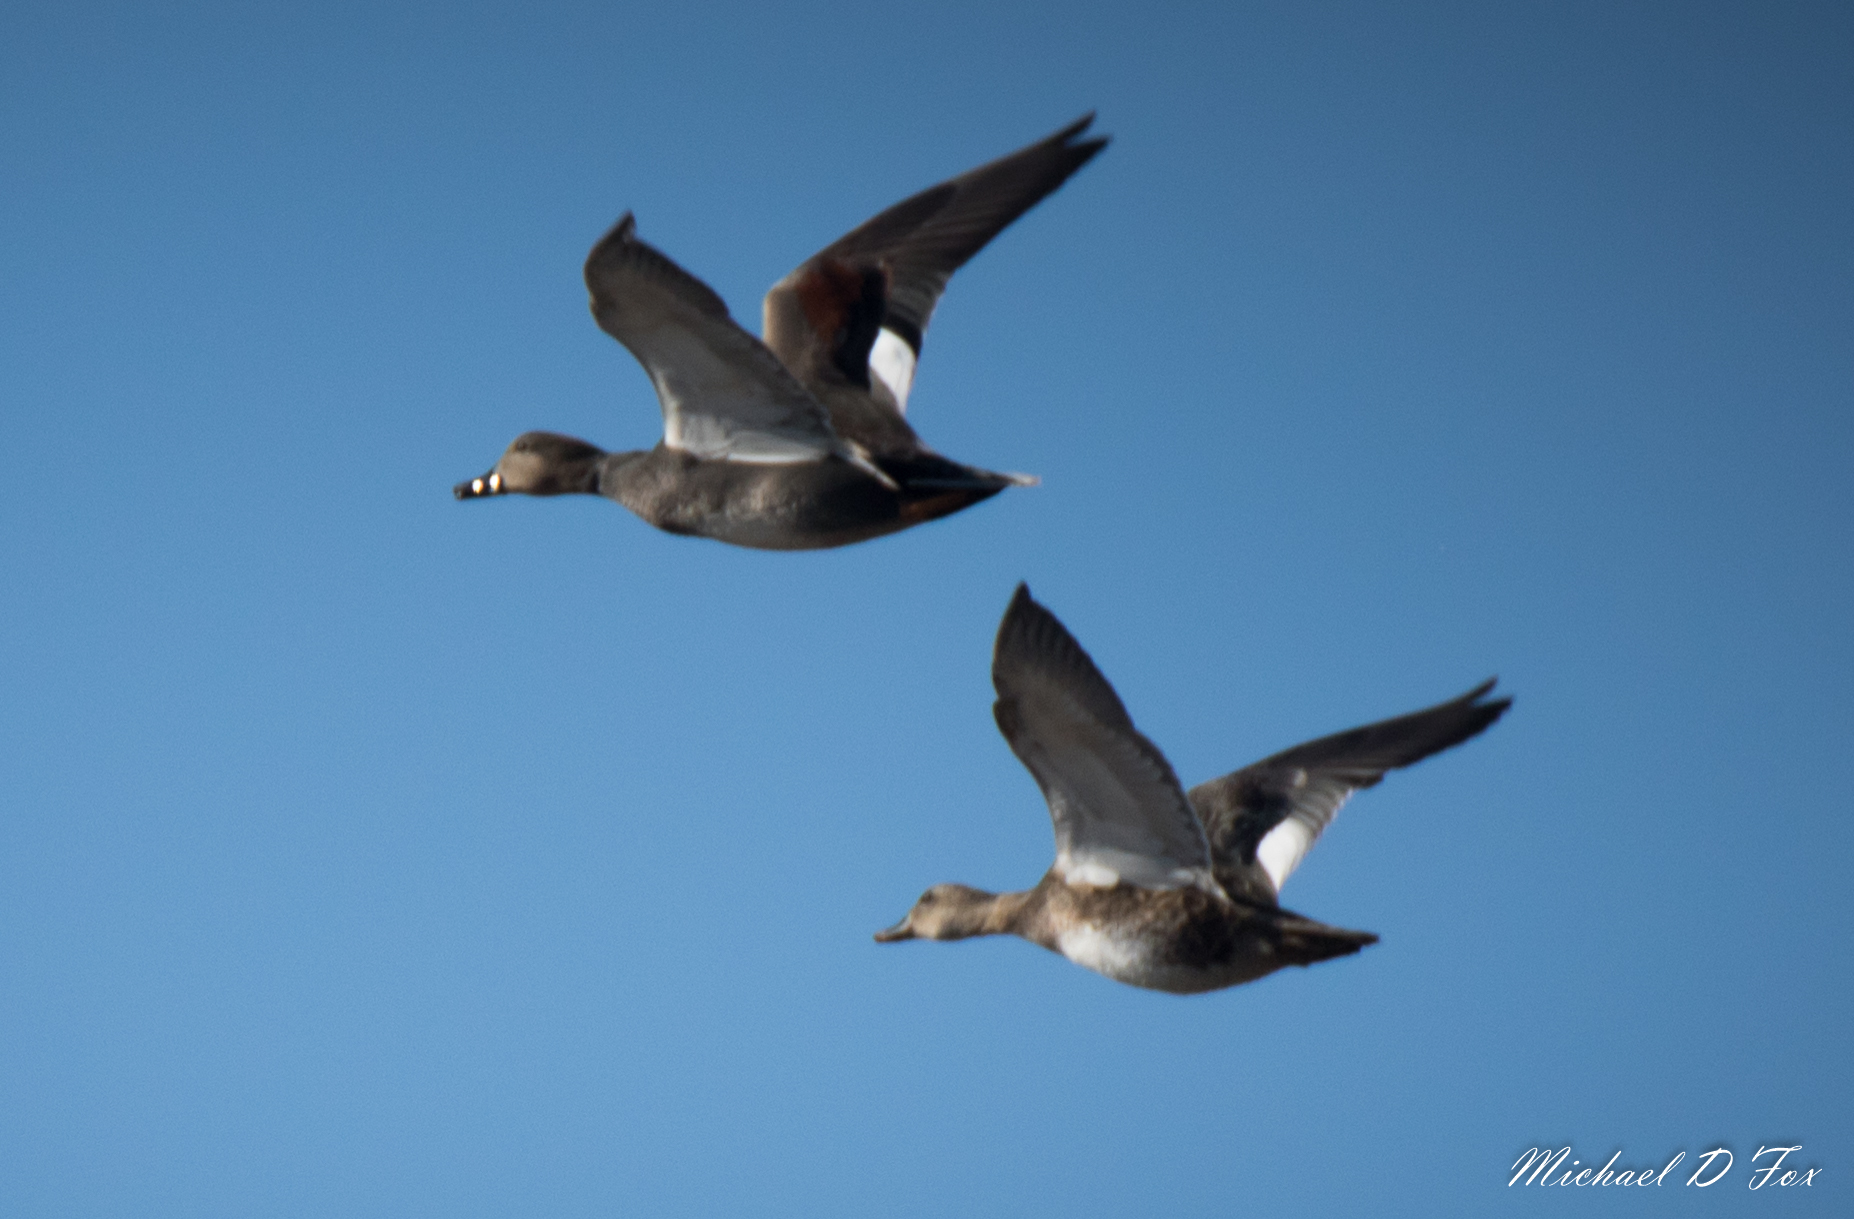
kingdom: Animalia
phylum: Chordata
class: Aves
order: Anseriformes
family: Anatidae
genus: Mareca
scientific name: Mareca strepera
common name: Gadwall
